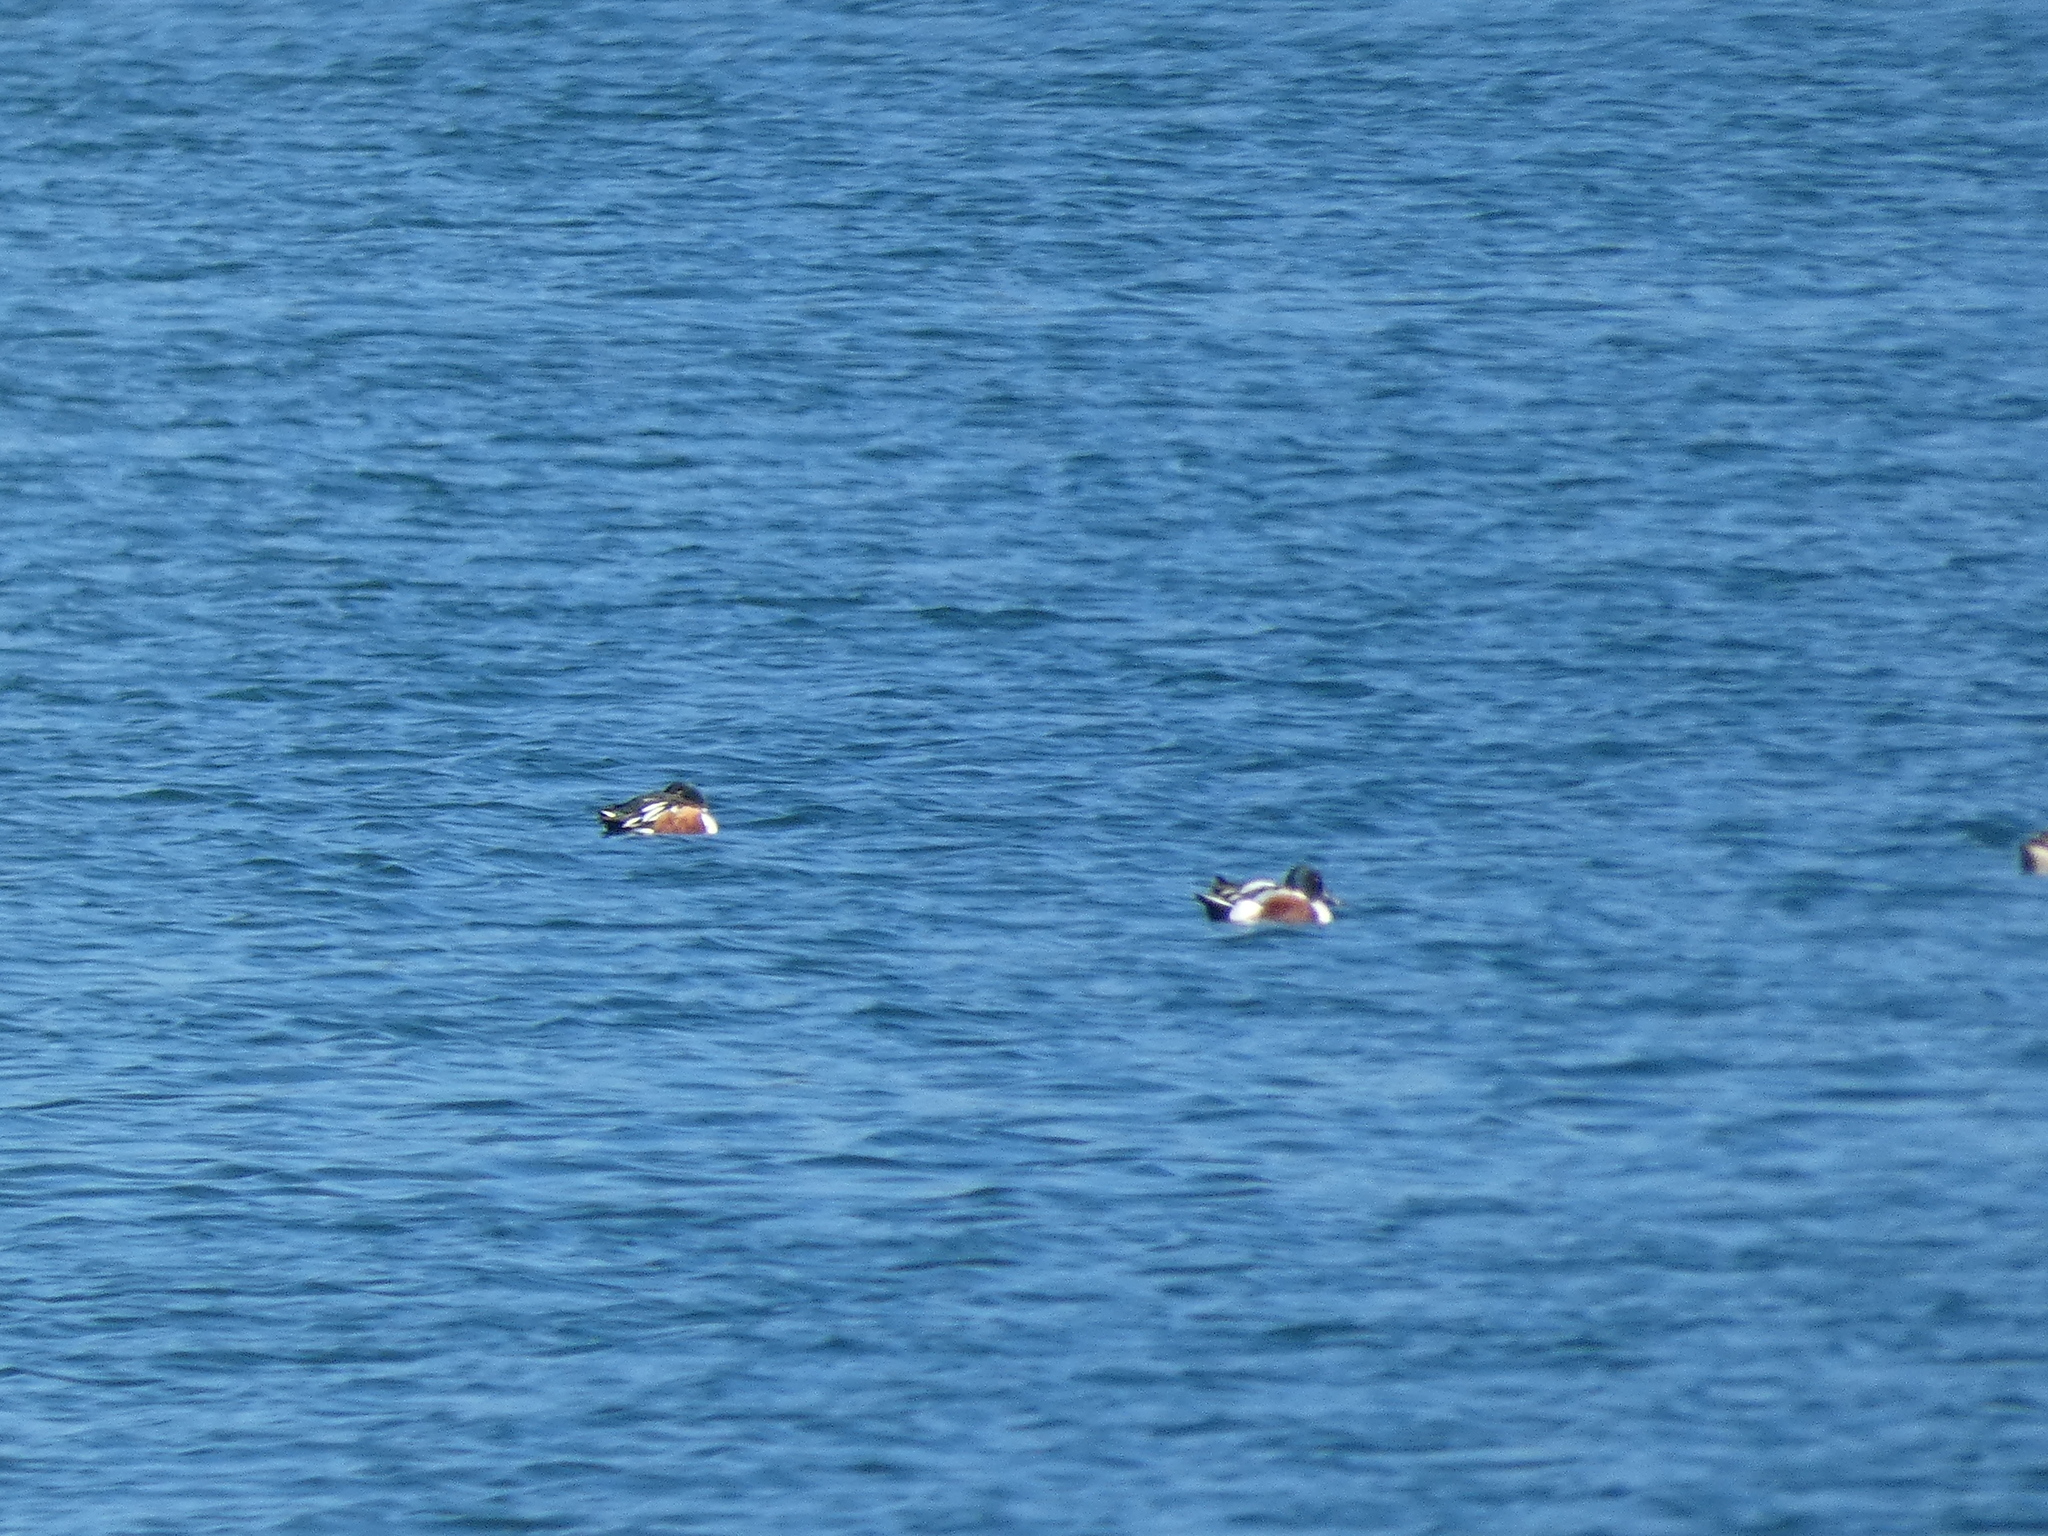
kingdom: Animalia
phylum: Chordata
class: Aves
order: Anseriformes
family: Anatidae
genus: Spatula
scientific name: Spatula clypeata
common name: Northern shoveler
